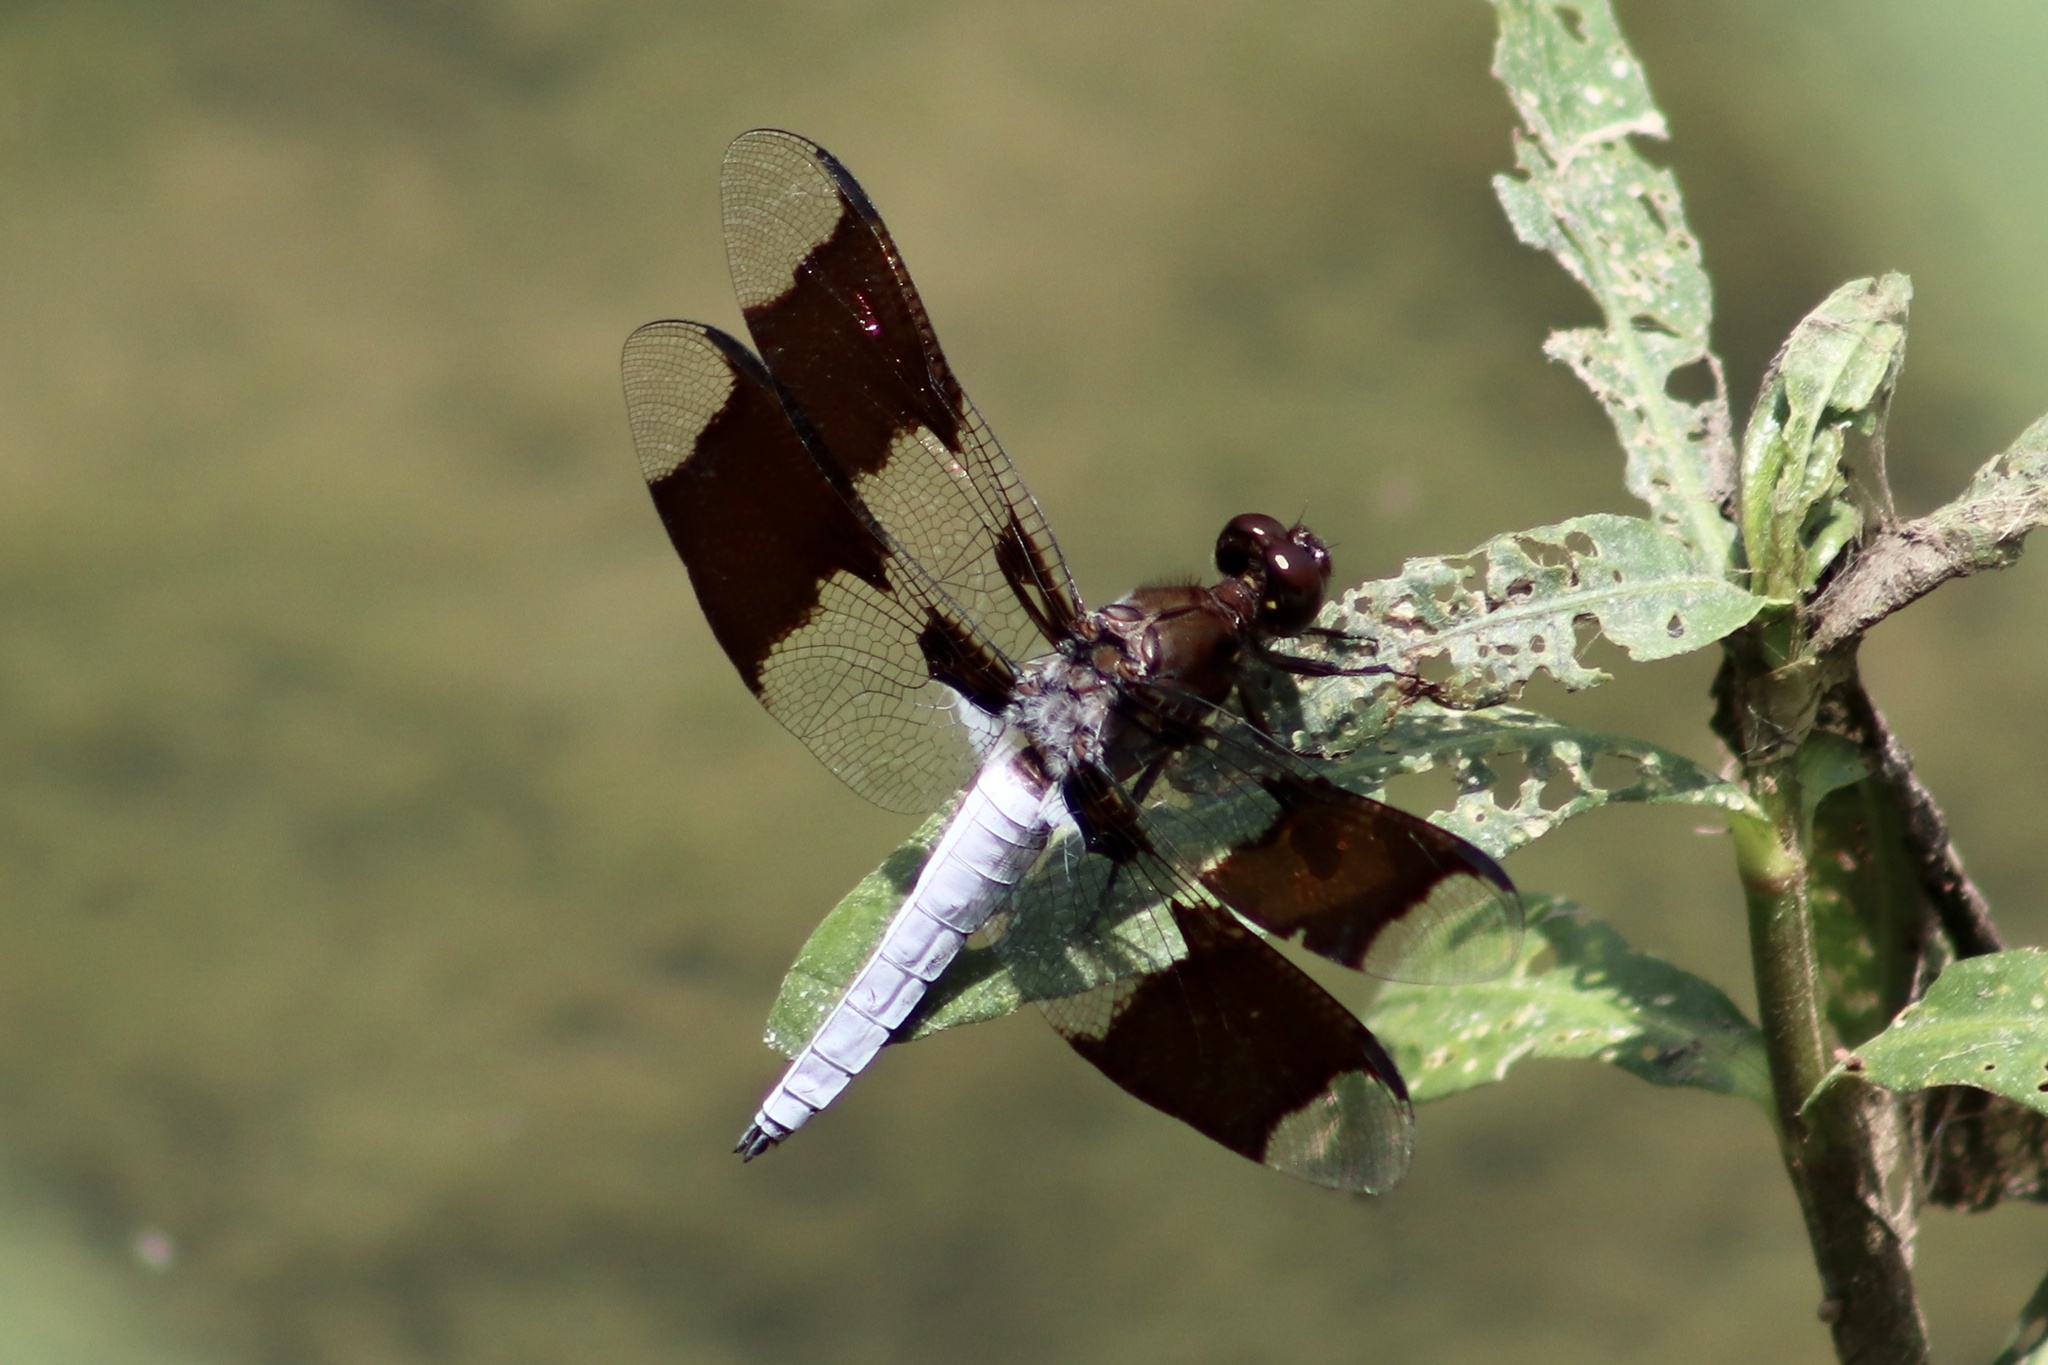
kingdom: Animalia
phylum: Arthropoda
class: Insecta
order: Odonata
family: Libellulidae
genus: Plathemis
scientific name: Plathemis lydia
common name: Common whitetail
